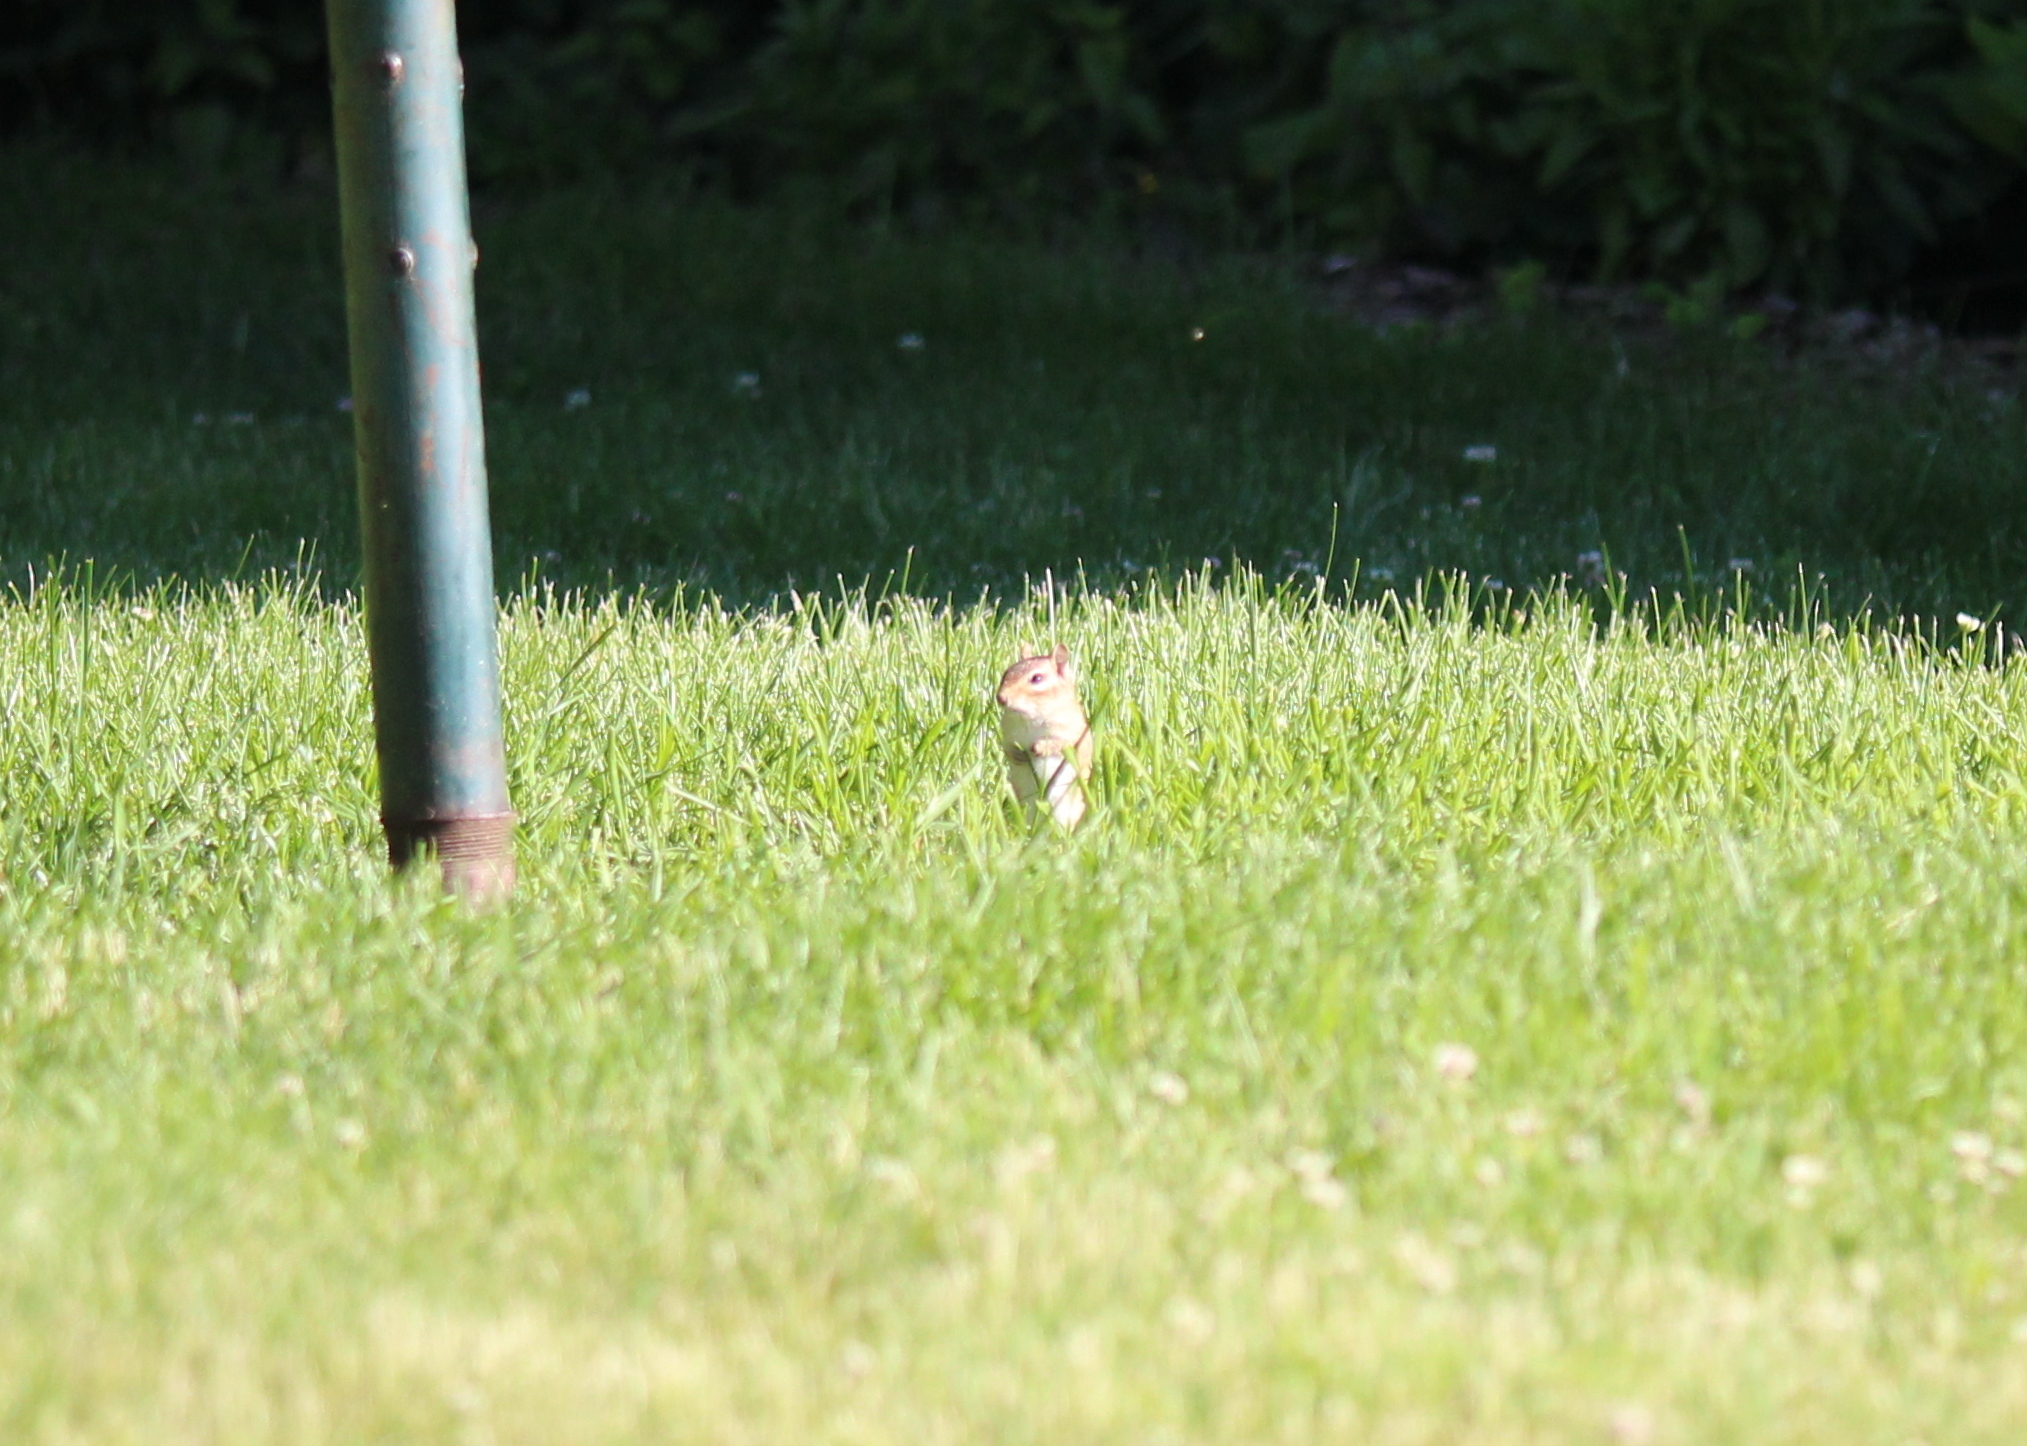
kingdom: Animalia
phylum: Chordata
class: Mammalia
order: Rodentia
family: Sciuridae
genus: Tamias
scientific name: Tamias striatus
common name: Eastern chipmunk
